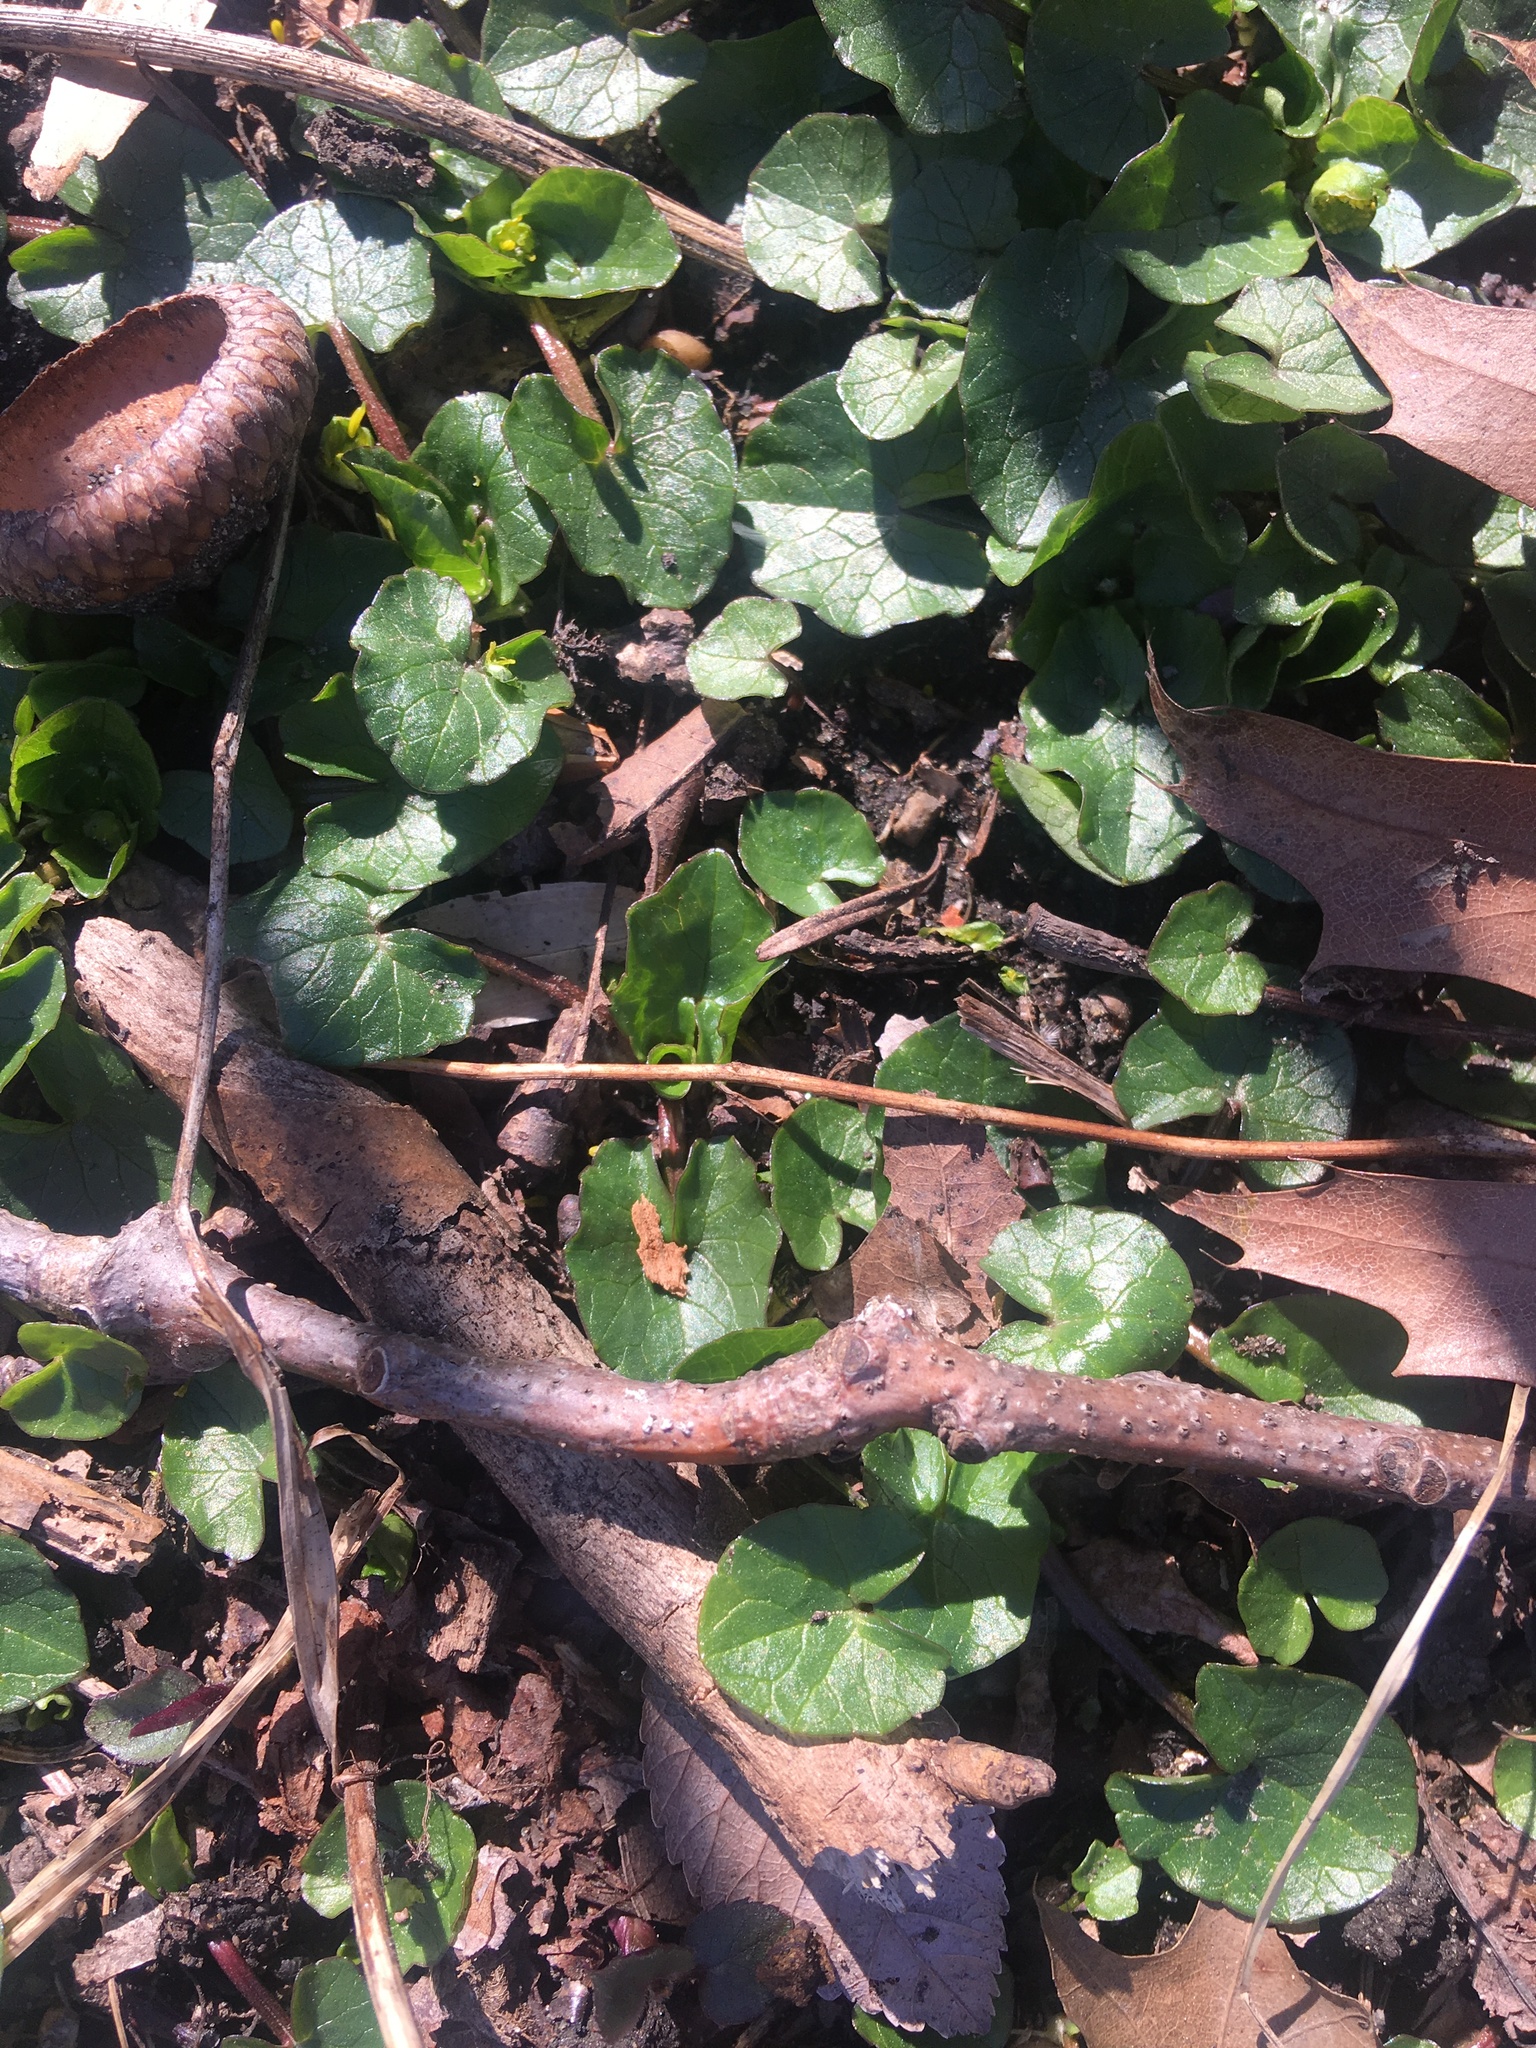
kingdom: Plantae
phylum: Tracheophyta
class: Magnoliopsida
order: Ranunculales
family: Ranunculaceae
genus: Ficaria
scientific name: Ficaria verna
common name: Lesser celandine
